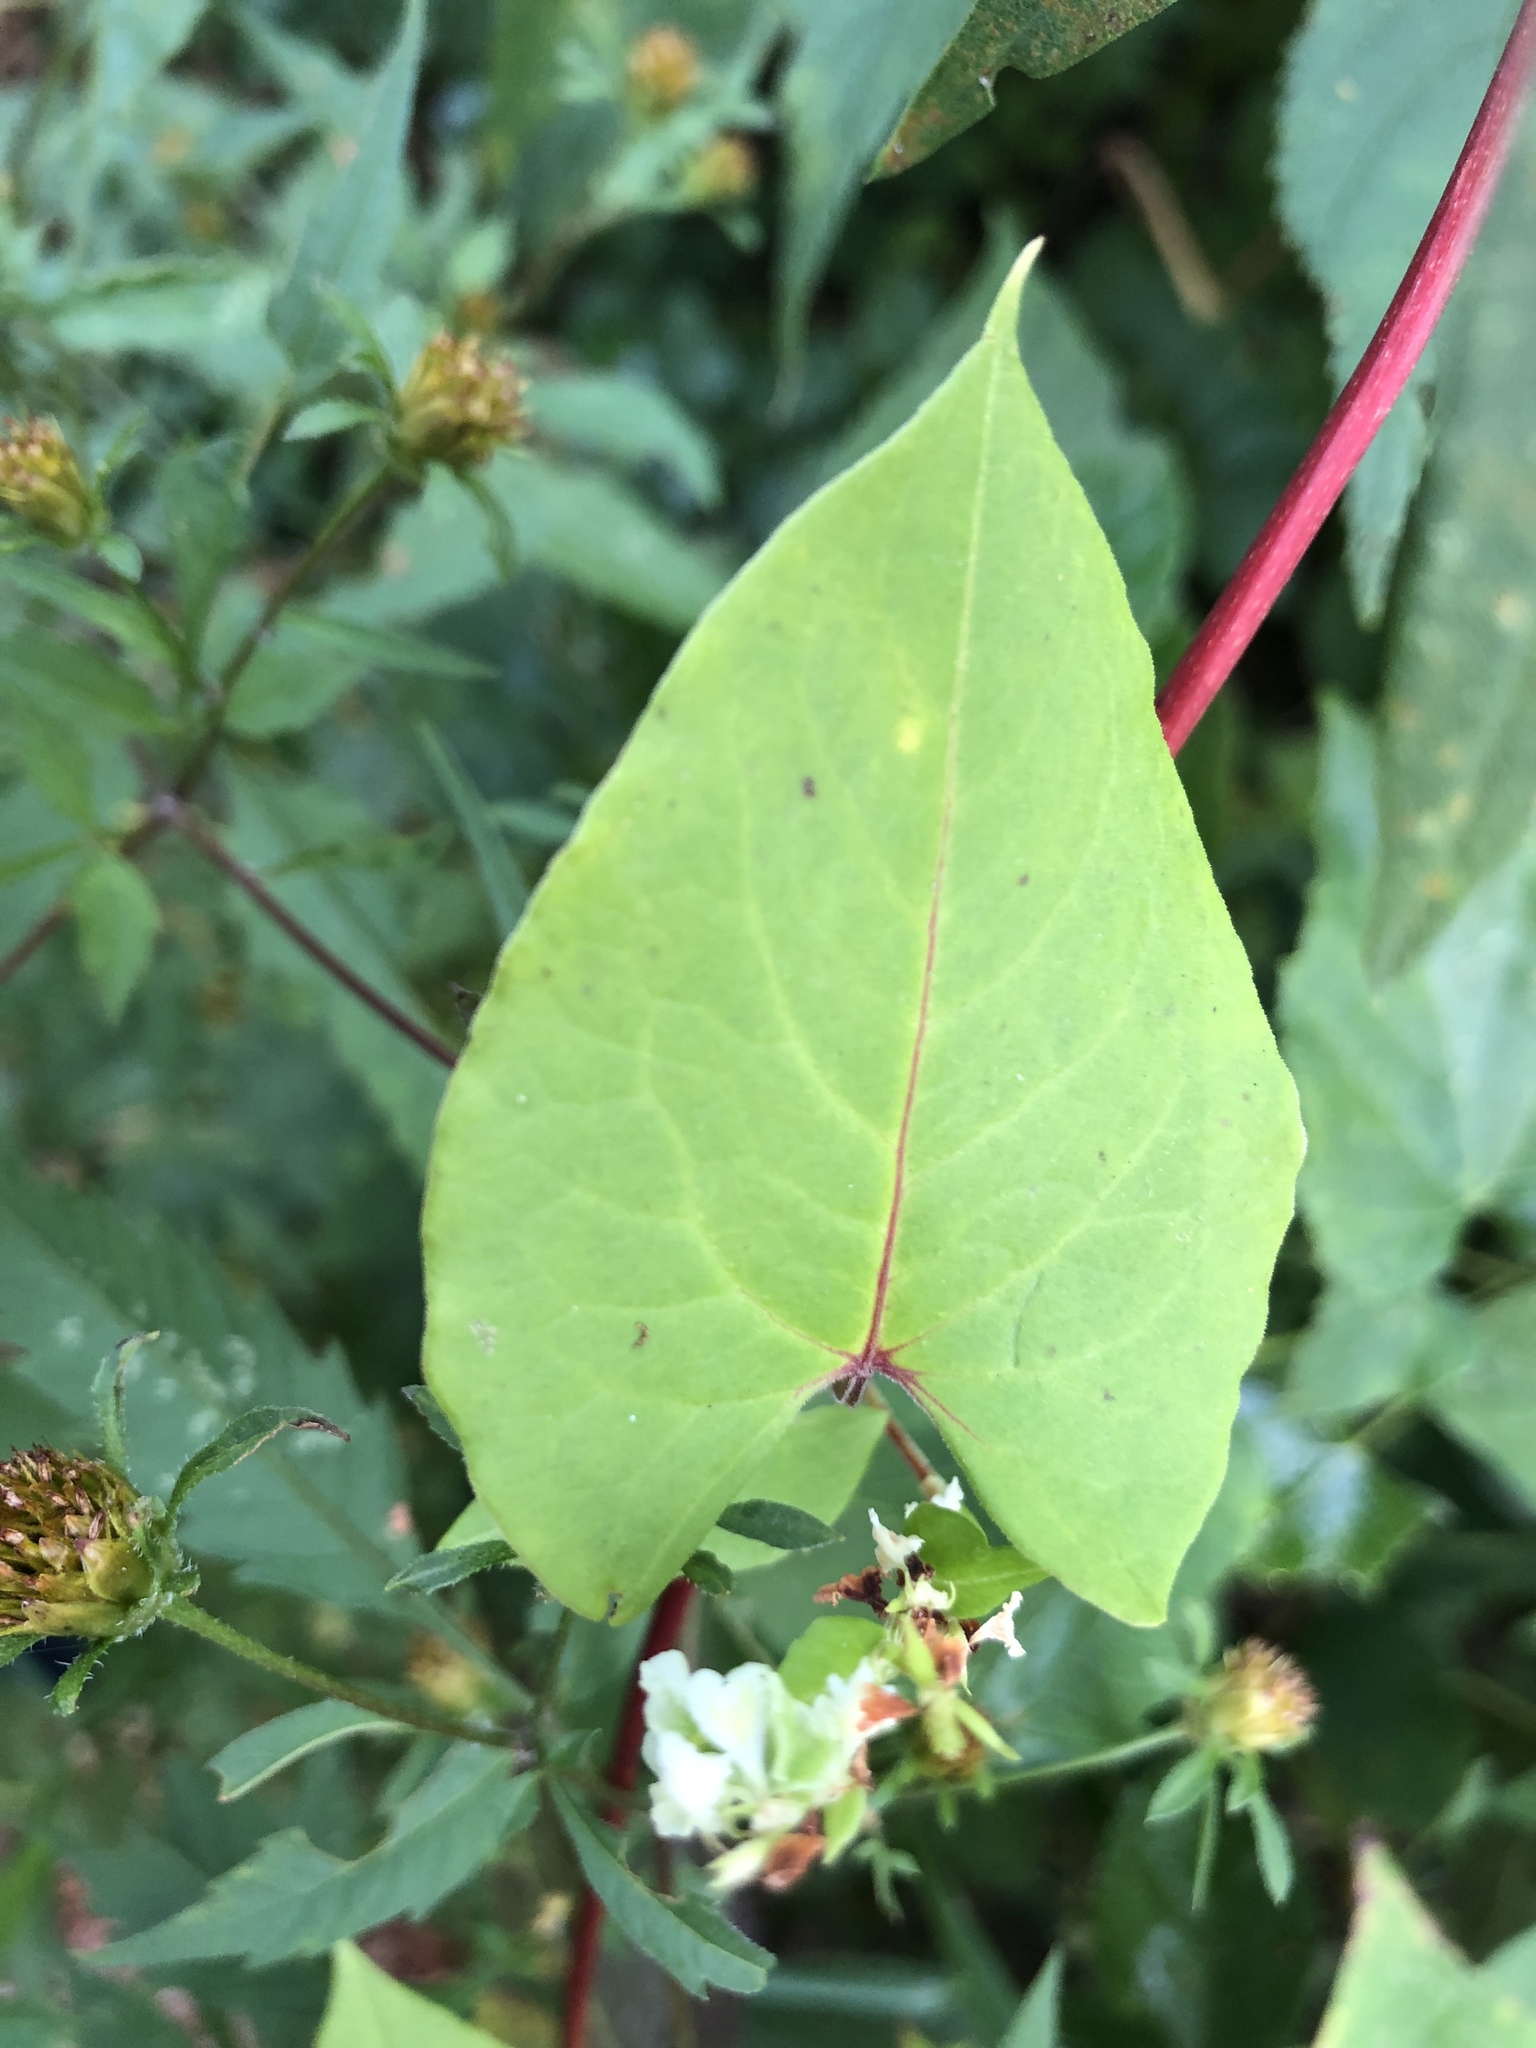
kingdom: Plantae
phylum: Tracheophyta
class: Magnoliopsida
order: Caryophyllales
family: Polygonaceae
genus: Fallopia
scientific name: Fallopia scandens
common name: Climbing false buckwheat
